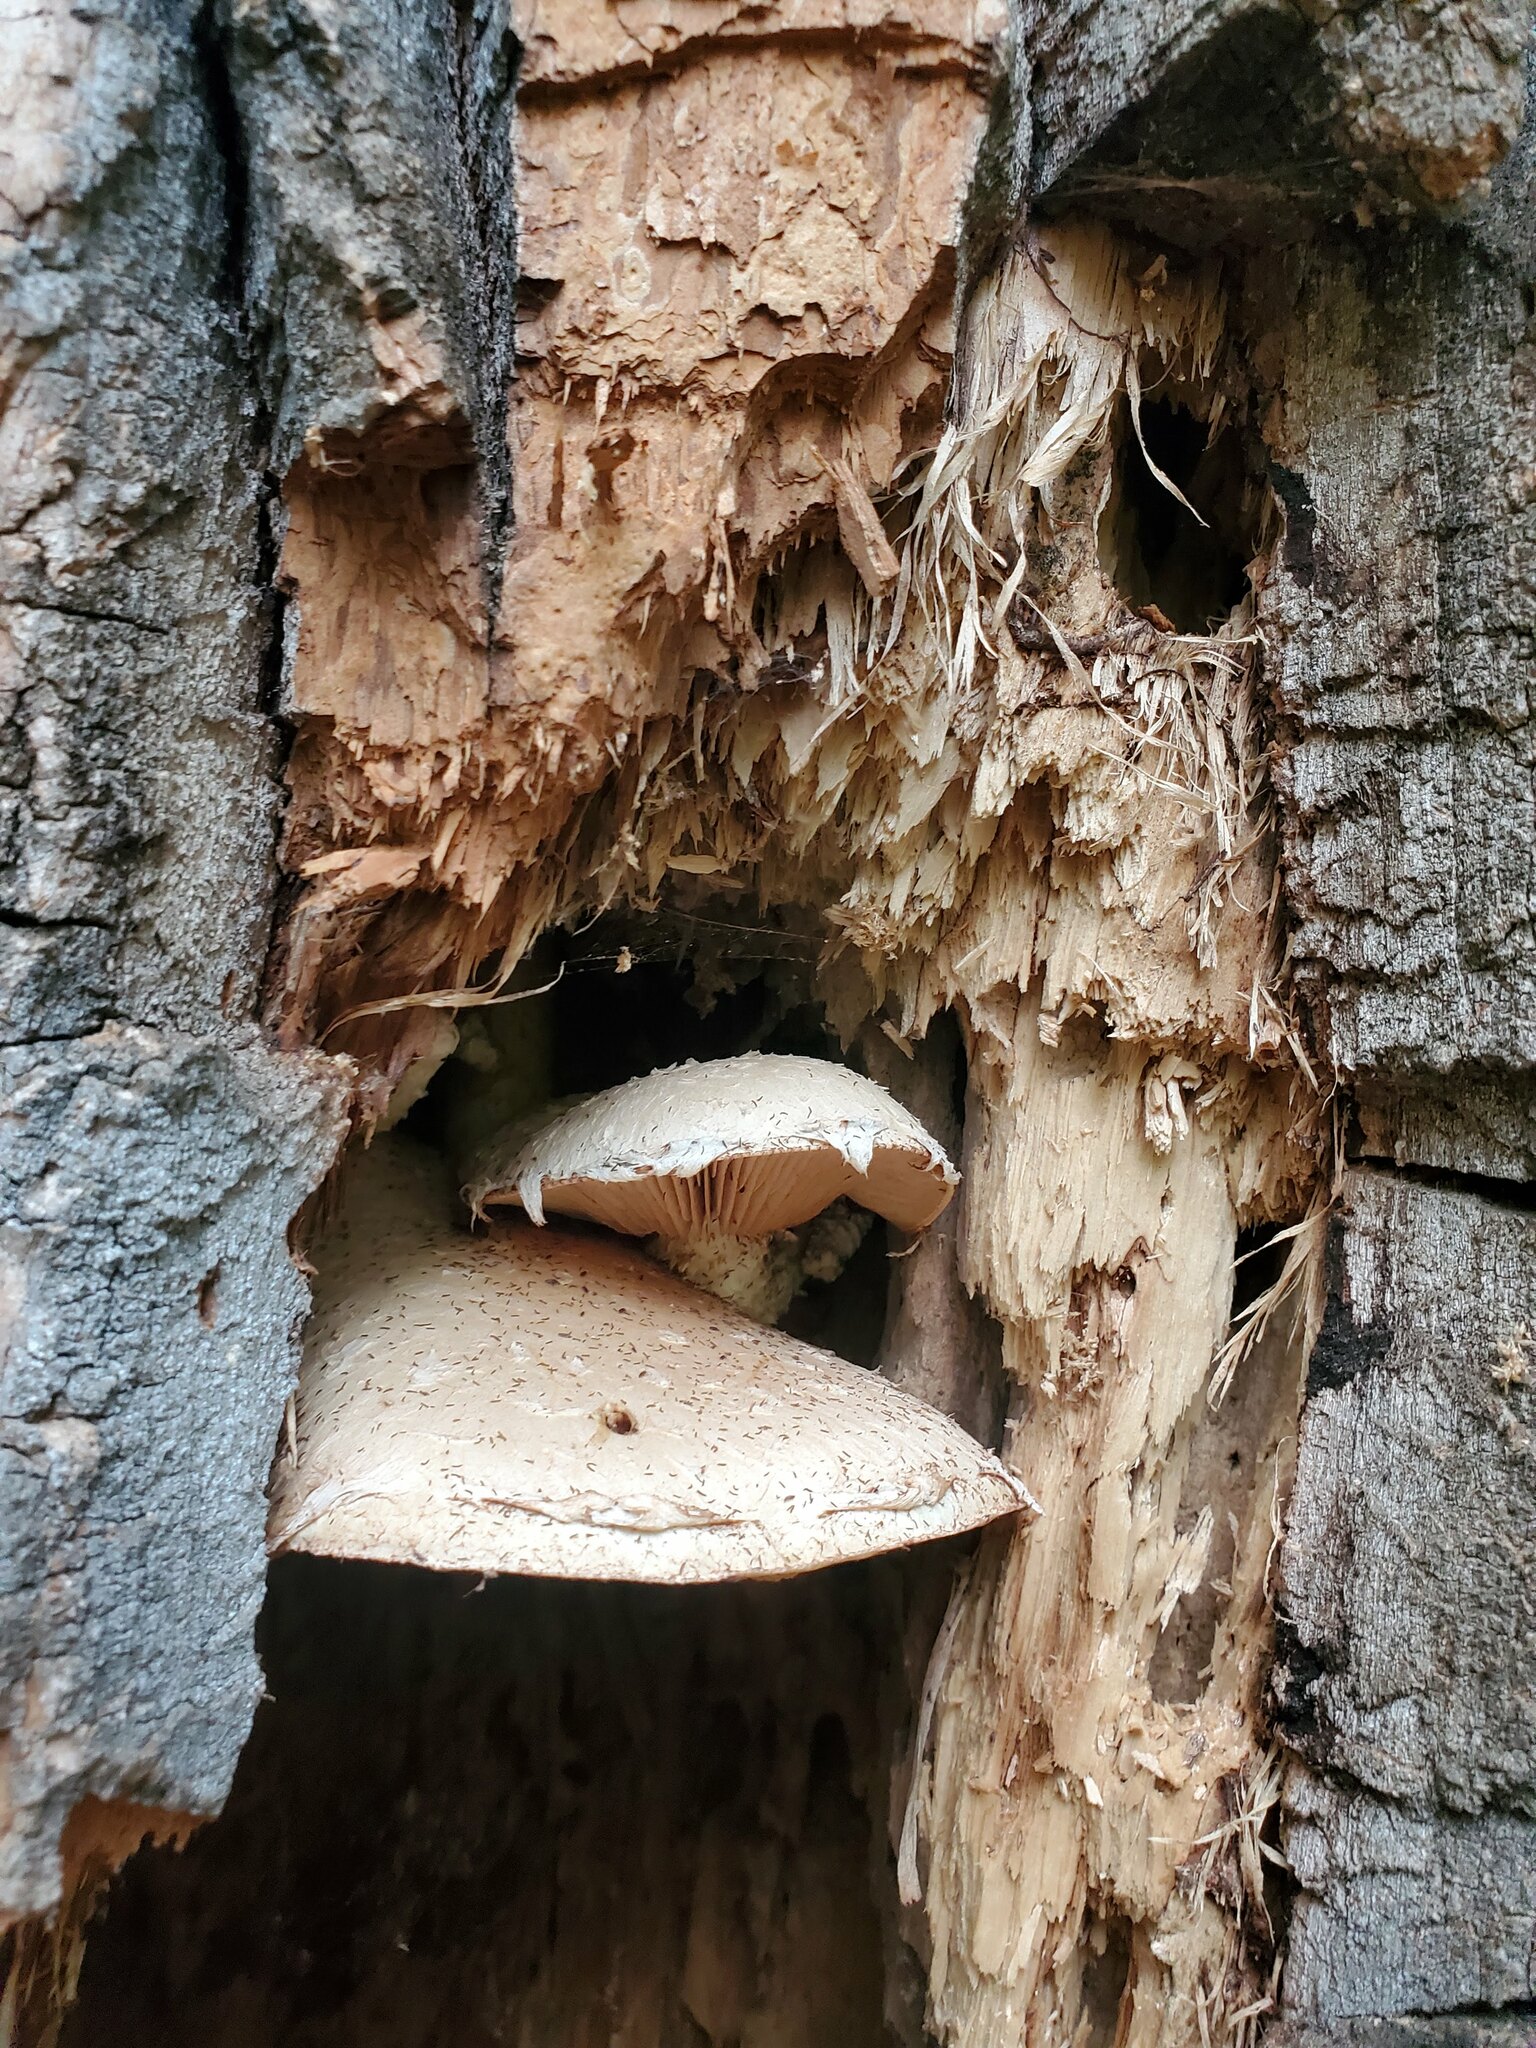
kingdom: Fungi
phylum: Basidiomycota
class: Agaricomycetes
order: Agaricales
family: Strophariaceae
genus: Pholiota
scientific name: Pholiota populnea
